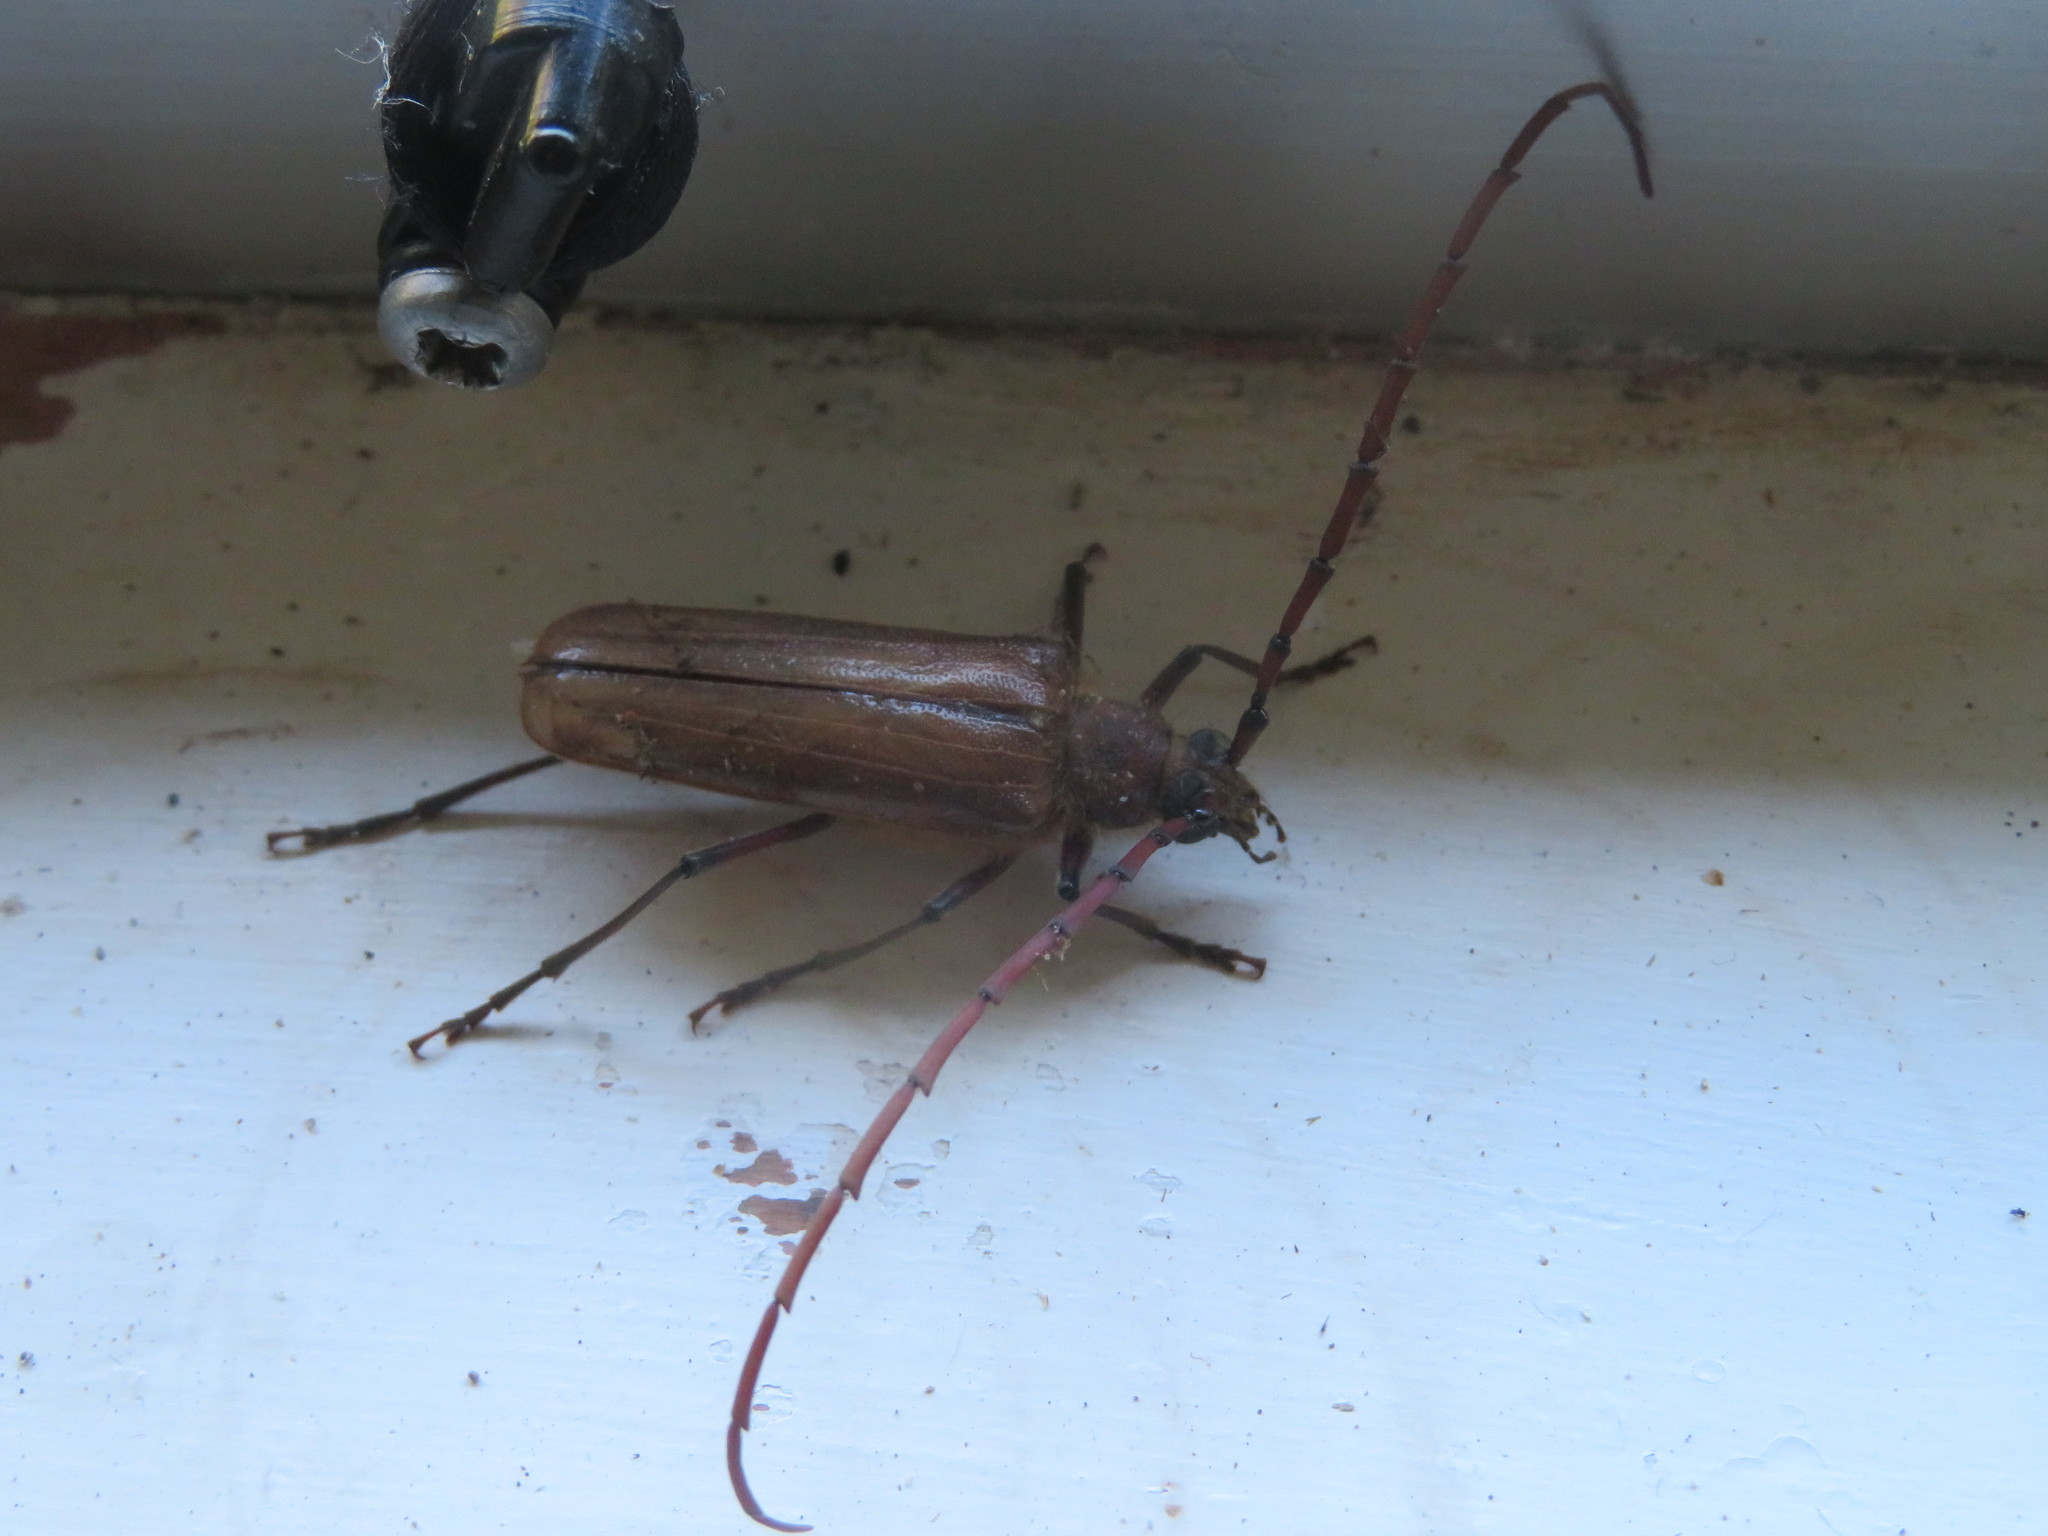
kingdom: Animalia
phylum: Arthropoda
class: Insecta
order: Coleoptera
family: Cerambycidae
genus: Ochrocydus
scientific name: Ochrocydus huttoni
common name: Kanuka longhorn
